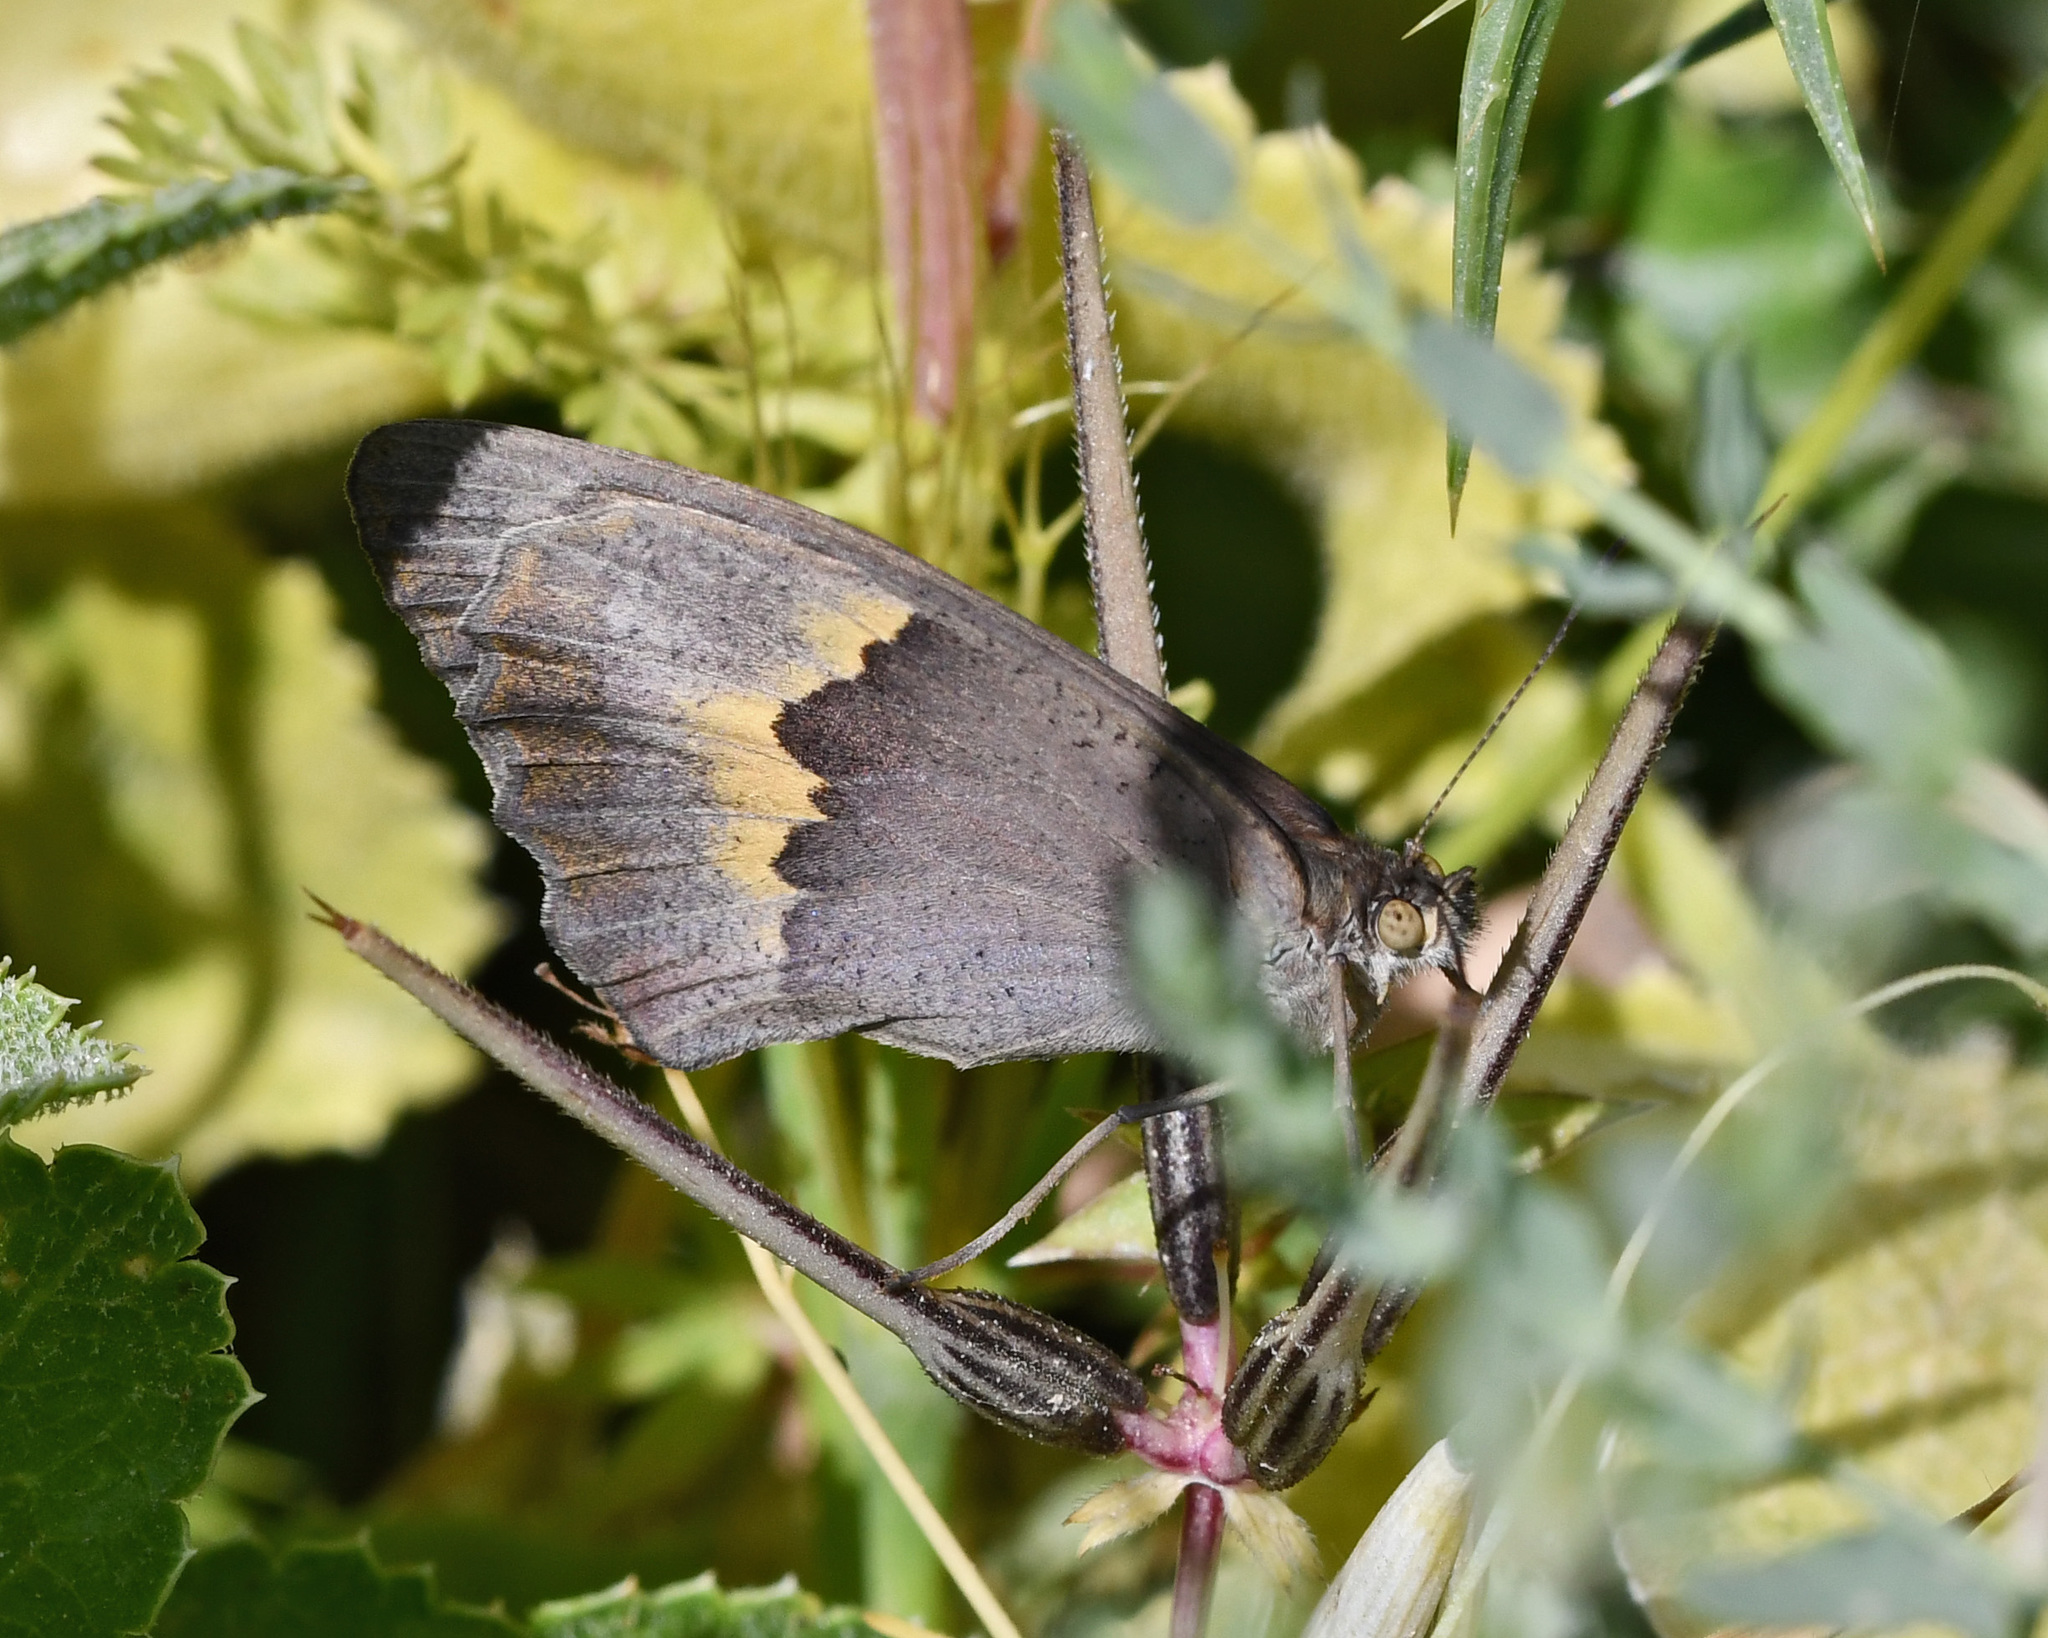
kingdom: Animalia
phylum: Arthropoda
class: Insecta
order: Lepidoptera
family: Nymphalidae
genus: Maniola
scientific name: Maniola telmessia
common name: Persian meadow brown
